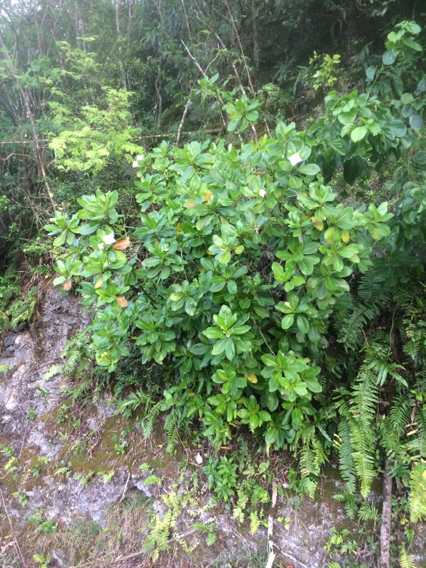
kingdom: Plantae
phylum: Tracheophyta
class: Magnoliopsida
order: Gentianales
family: Rubiaceae
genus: Bikkia
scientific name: Bikkia tetrandra
